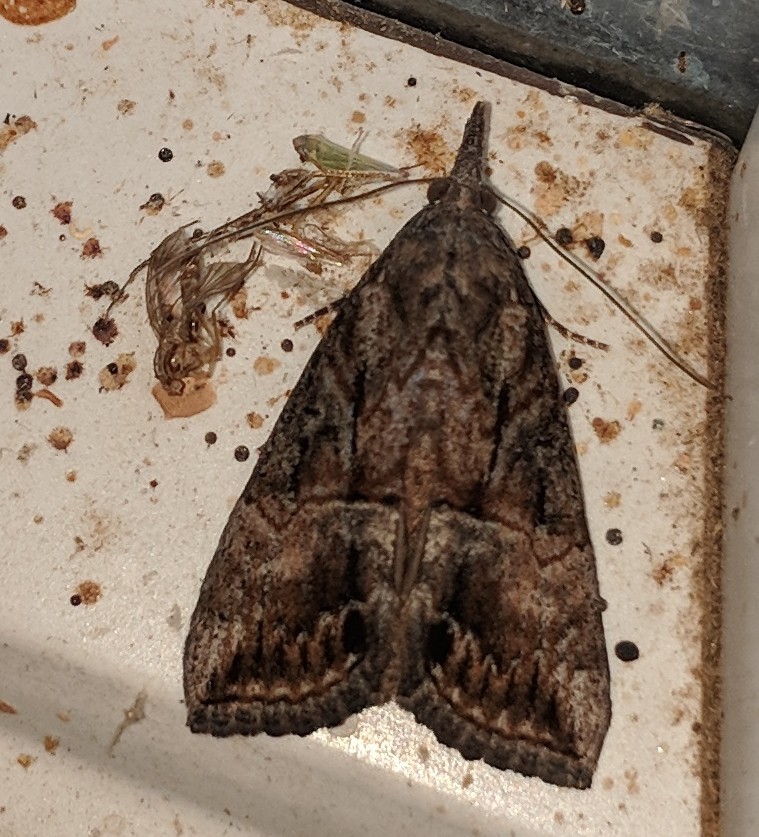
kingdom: Animalia
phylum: Arthropoda
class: Insecta
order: Lepidoptera
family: Erebidae
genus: Hypena
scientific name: Hypena scabra
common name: Green cloverworm
